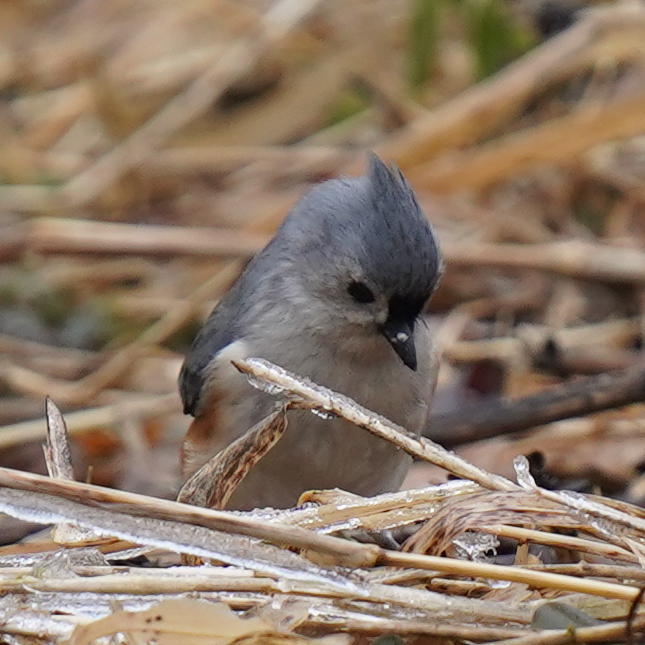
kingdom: Animalia
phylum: Chordata
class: Aves
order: Passeriformes
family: Paridae
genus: Baeolophus
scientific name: Baeolophus bicolor
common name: Tufted titmouse
